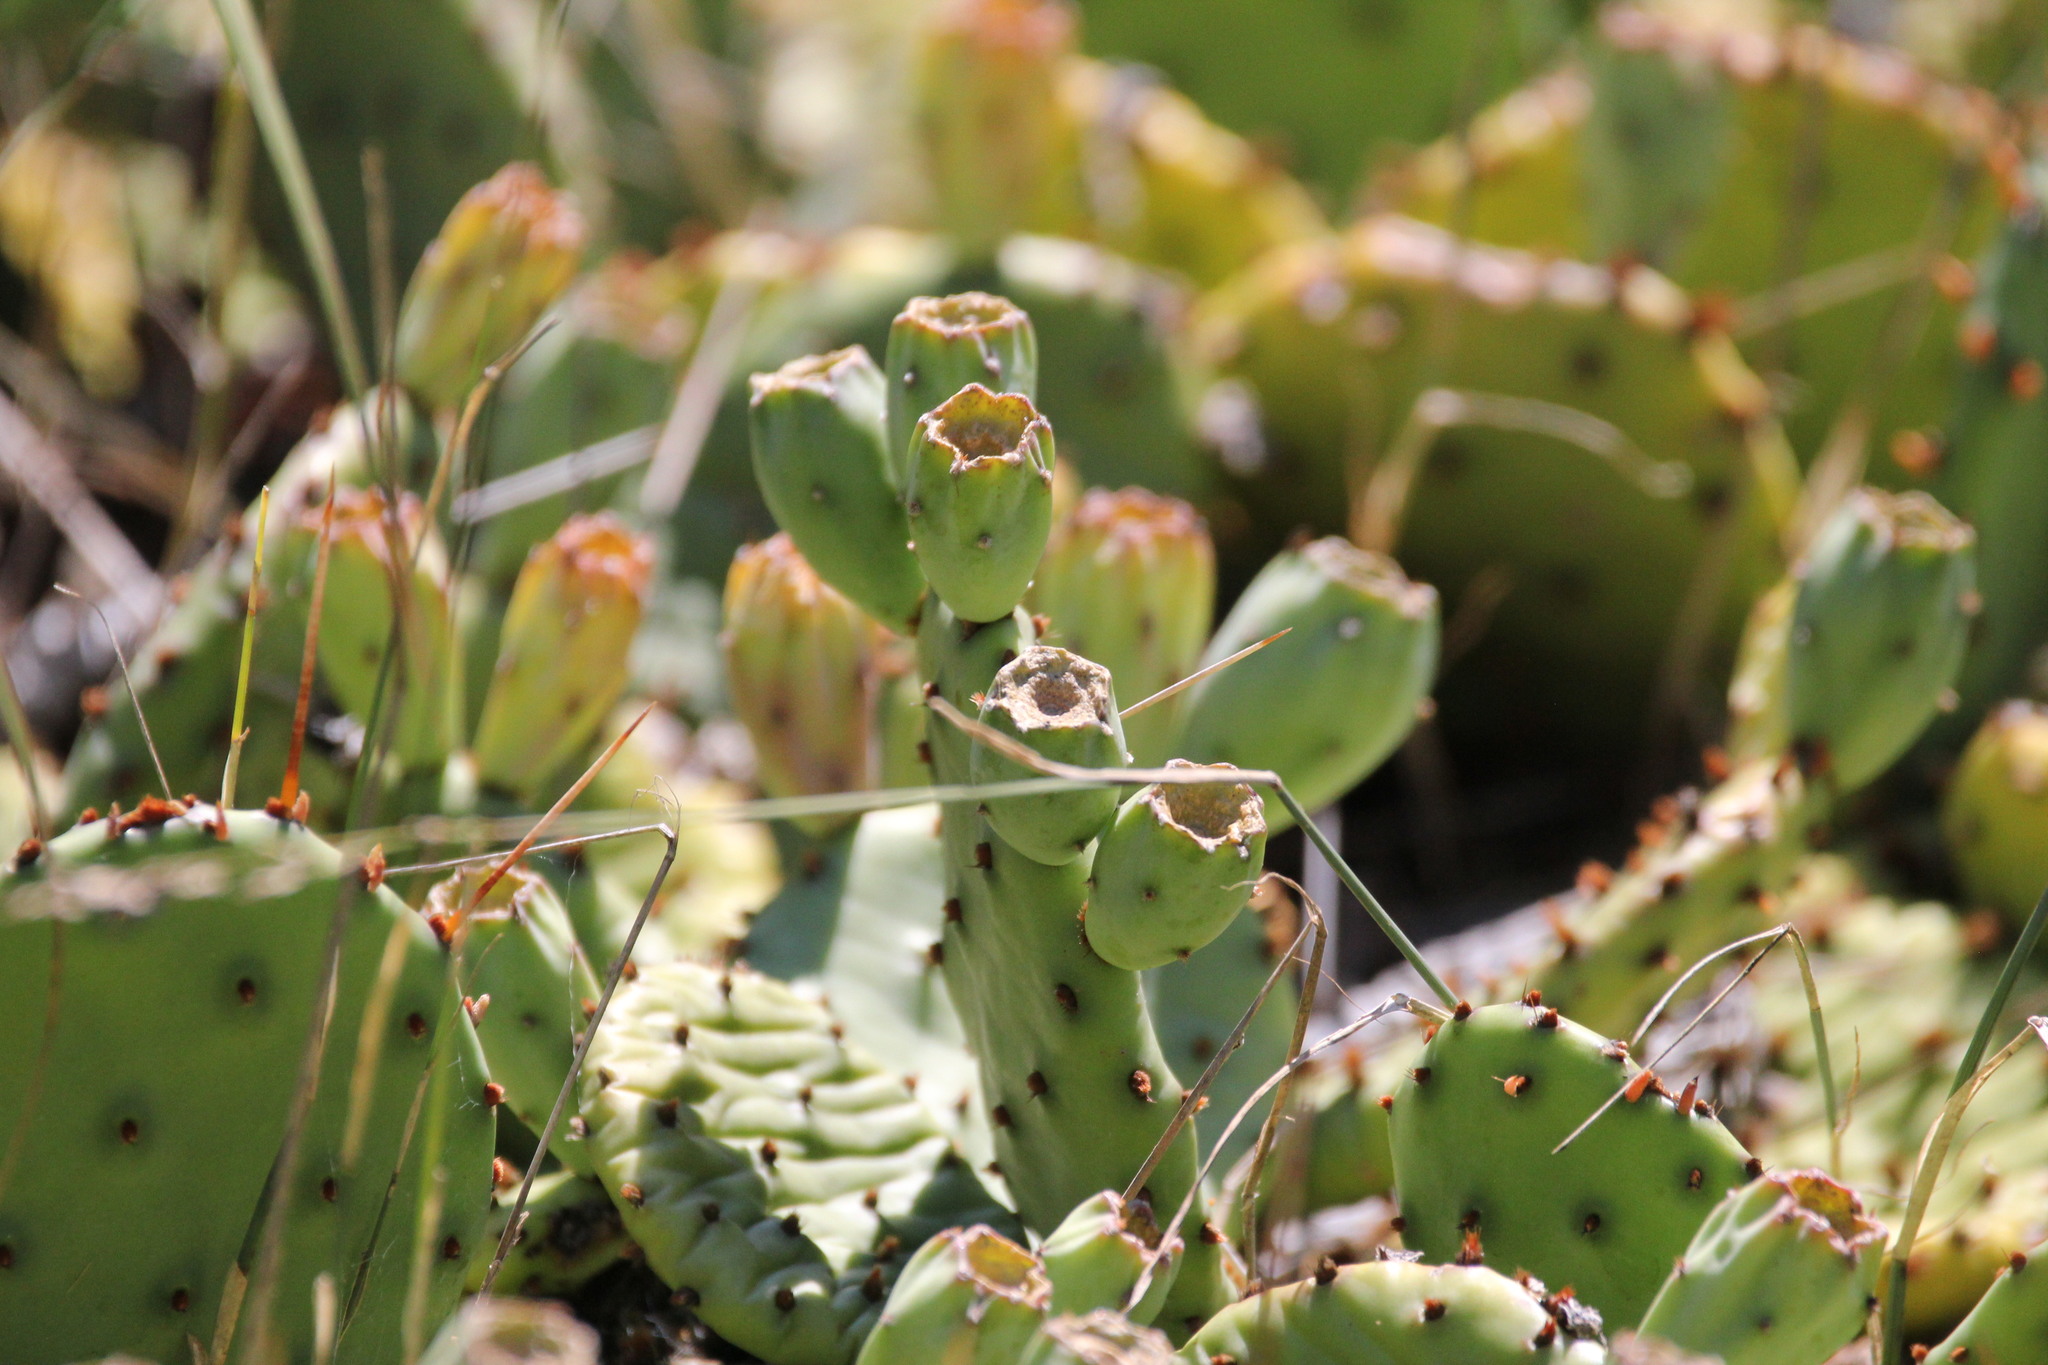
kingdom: Plantae
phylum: Tracheophyta
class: Magnoliopsida
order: Caryophyllales
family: Cactaceae
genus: Opuntia
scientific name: Opuntia humifusa
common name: Eastern prickly-pear
